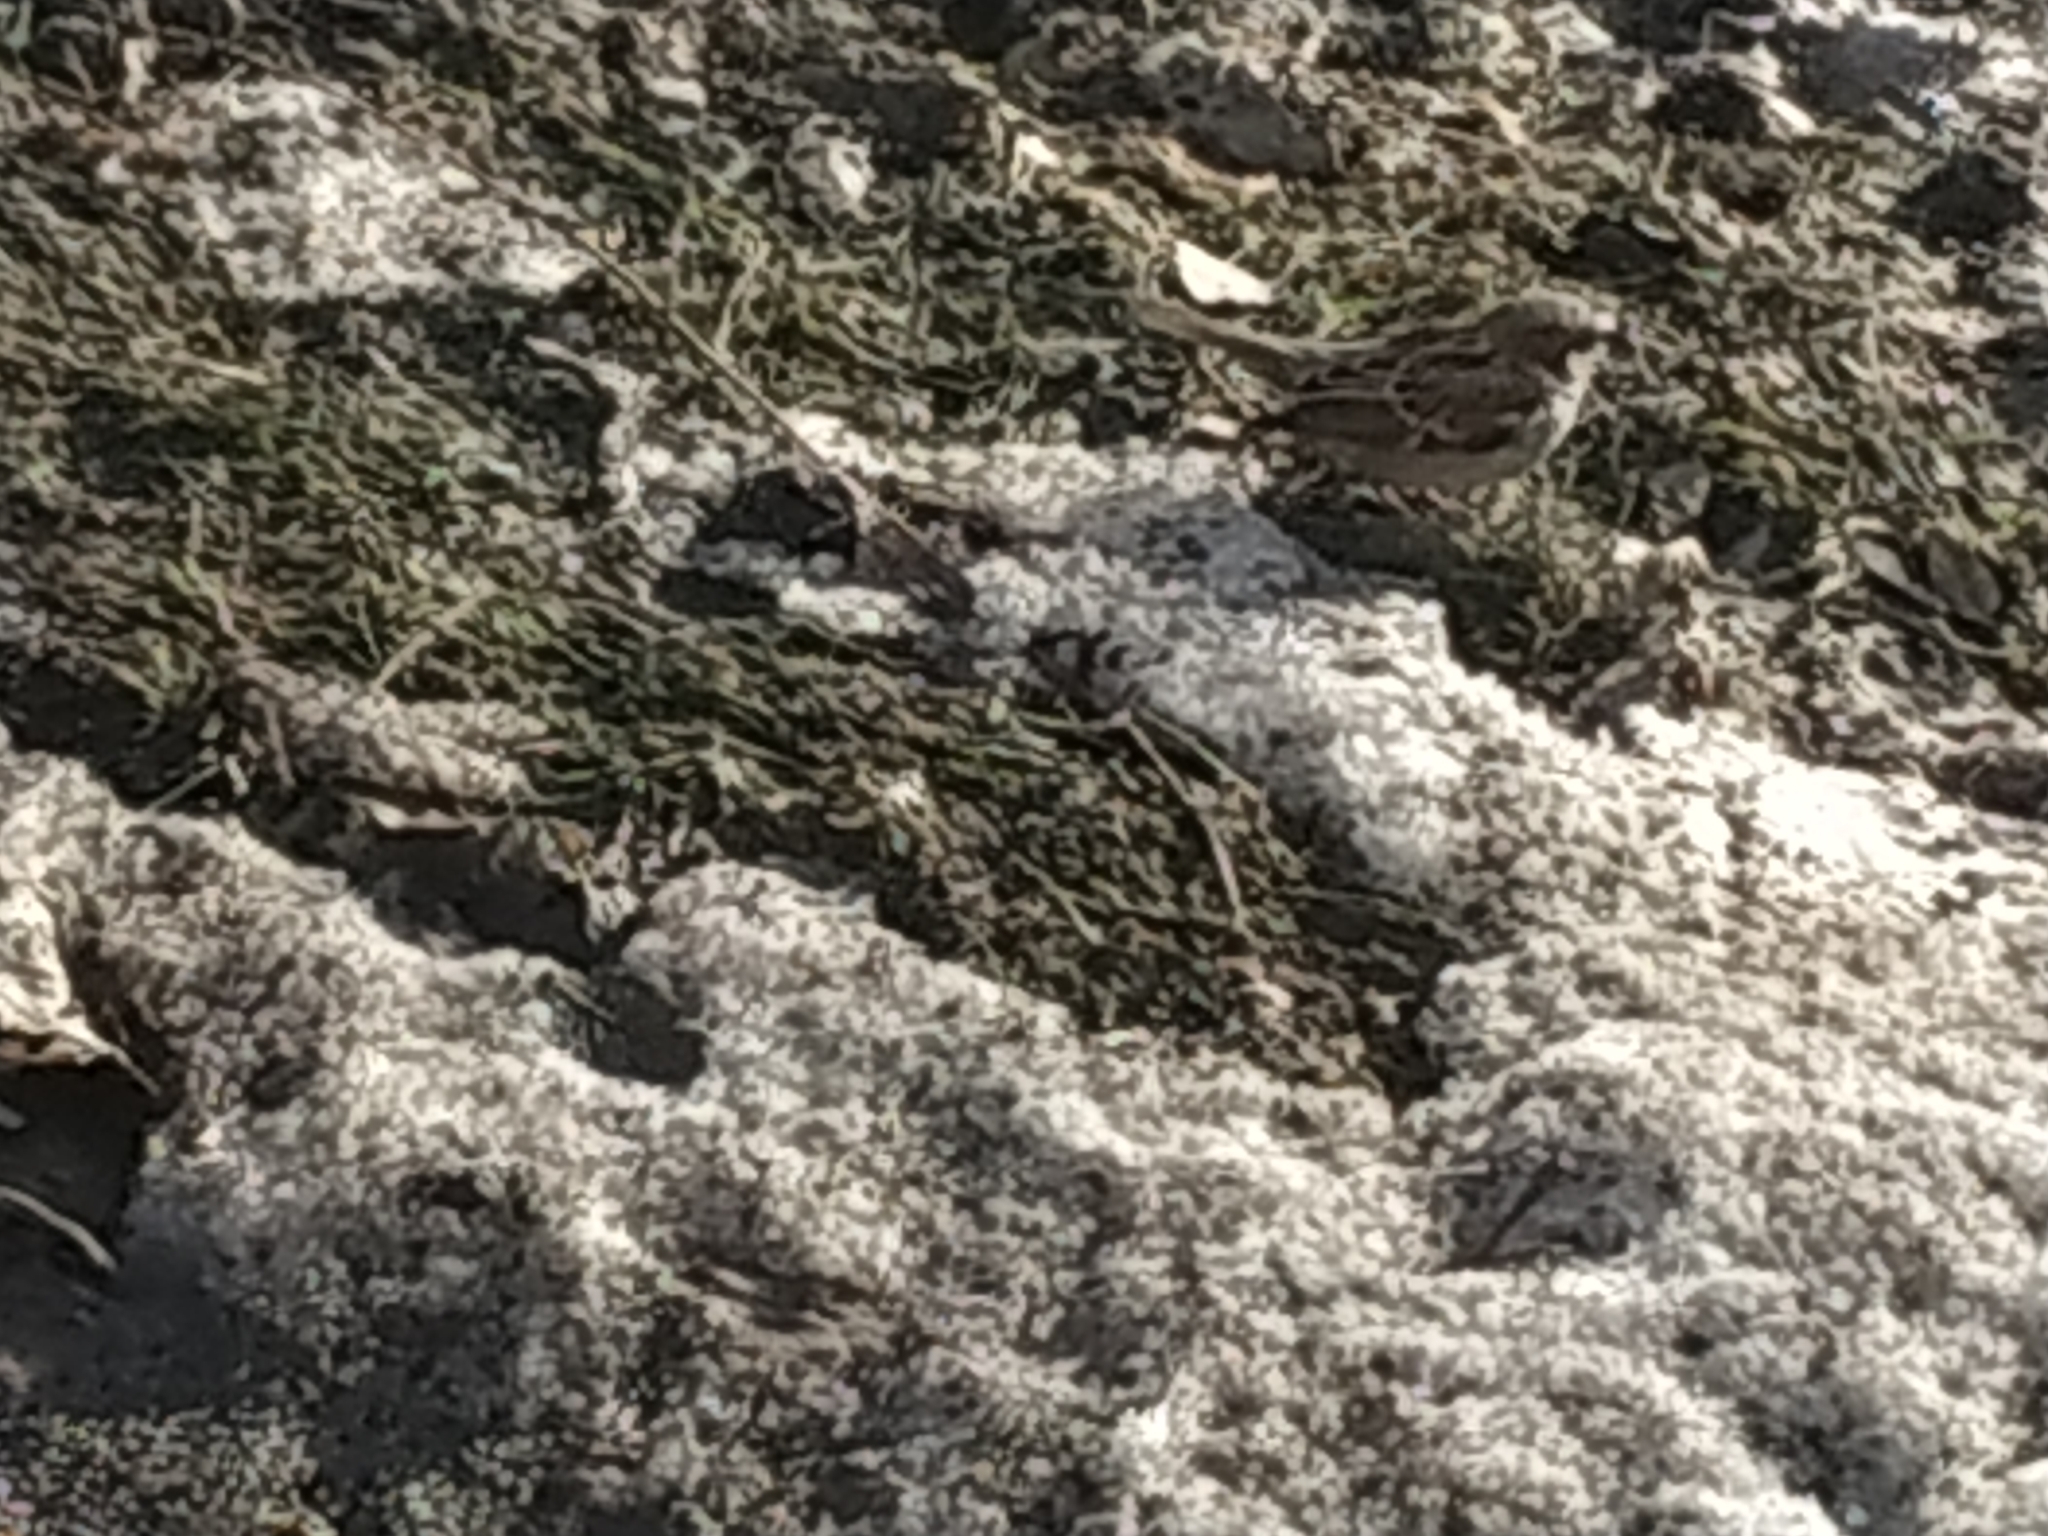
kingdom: Animalia
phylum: Chordata
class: Aves
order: Passeriformes
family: Passeridae
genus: Passer
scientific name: Passer domesticus
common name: House sparrow
